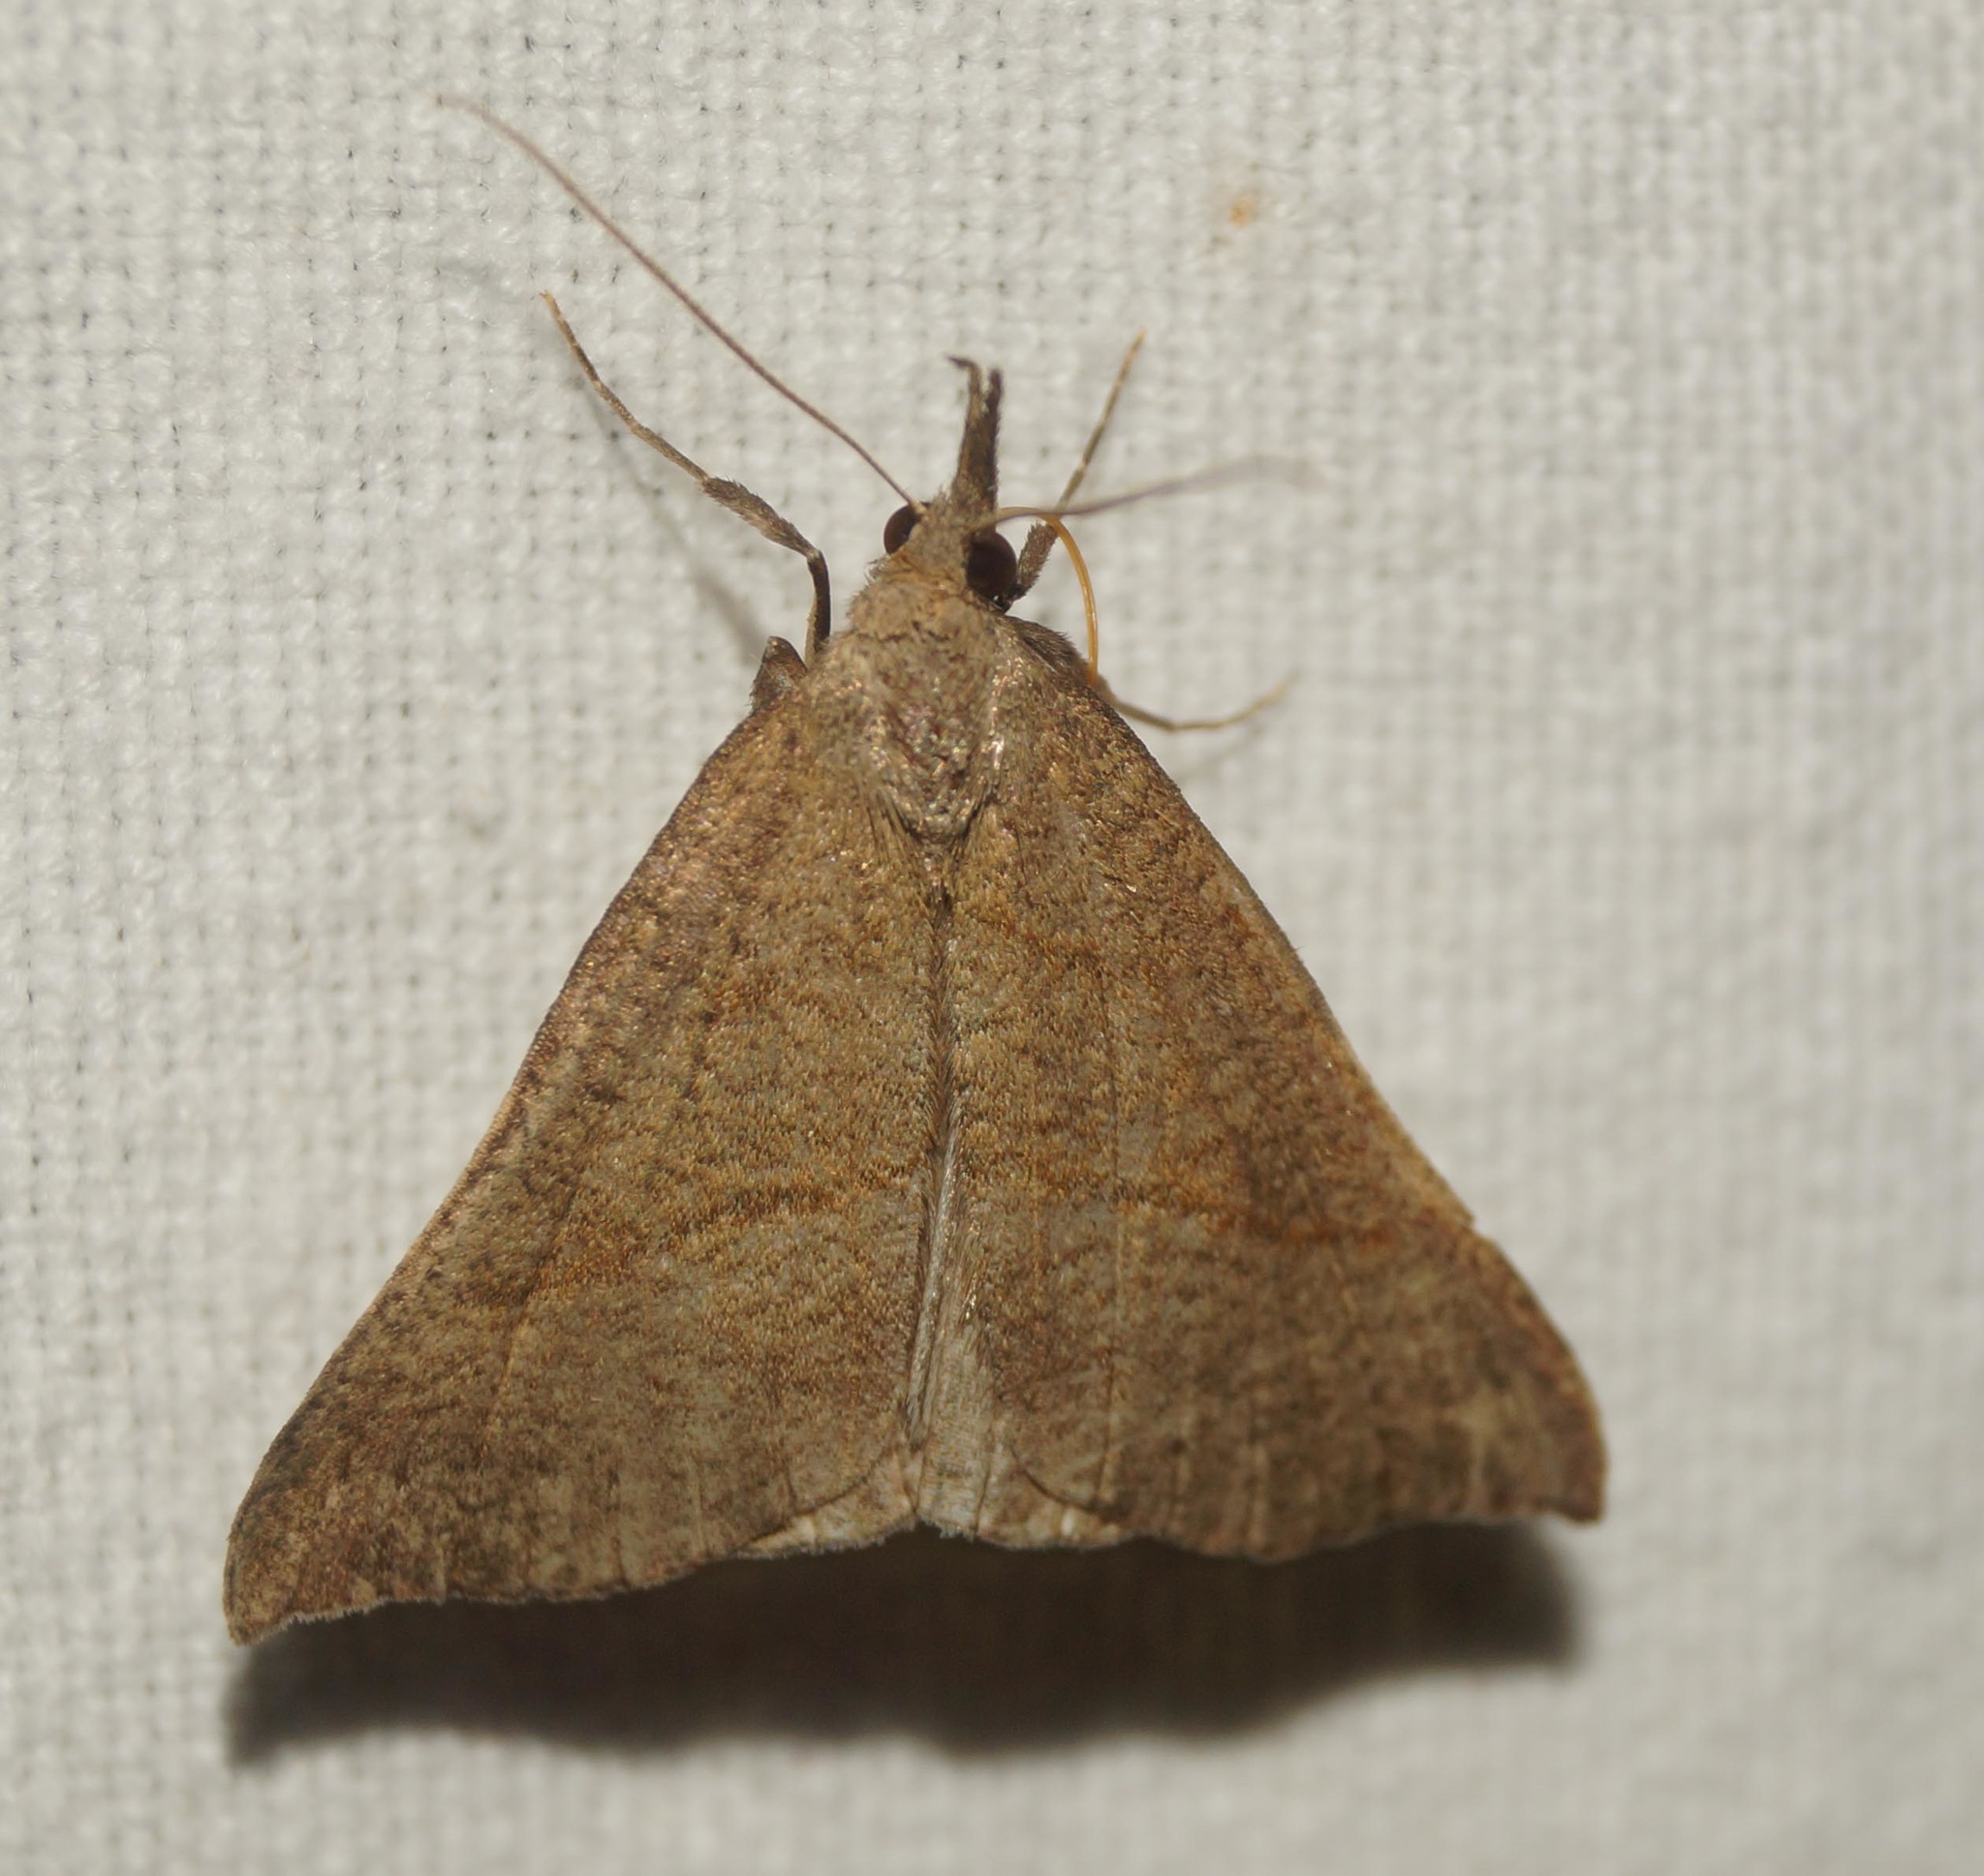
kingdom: Animalia
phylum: Arthropoda
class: Insecta
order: Lepidoptera
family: Erebidae
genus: Hypena
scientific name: Hypena proboscidalis
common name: Snout
